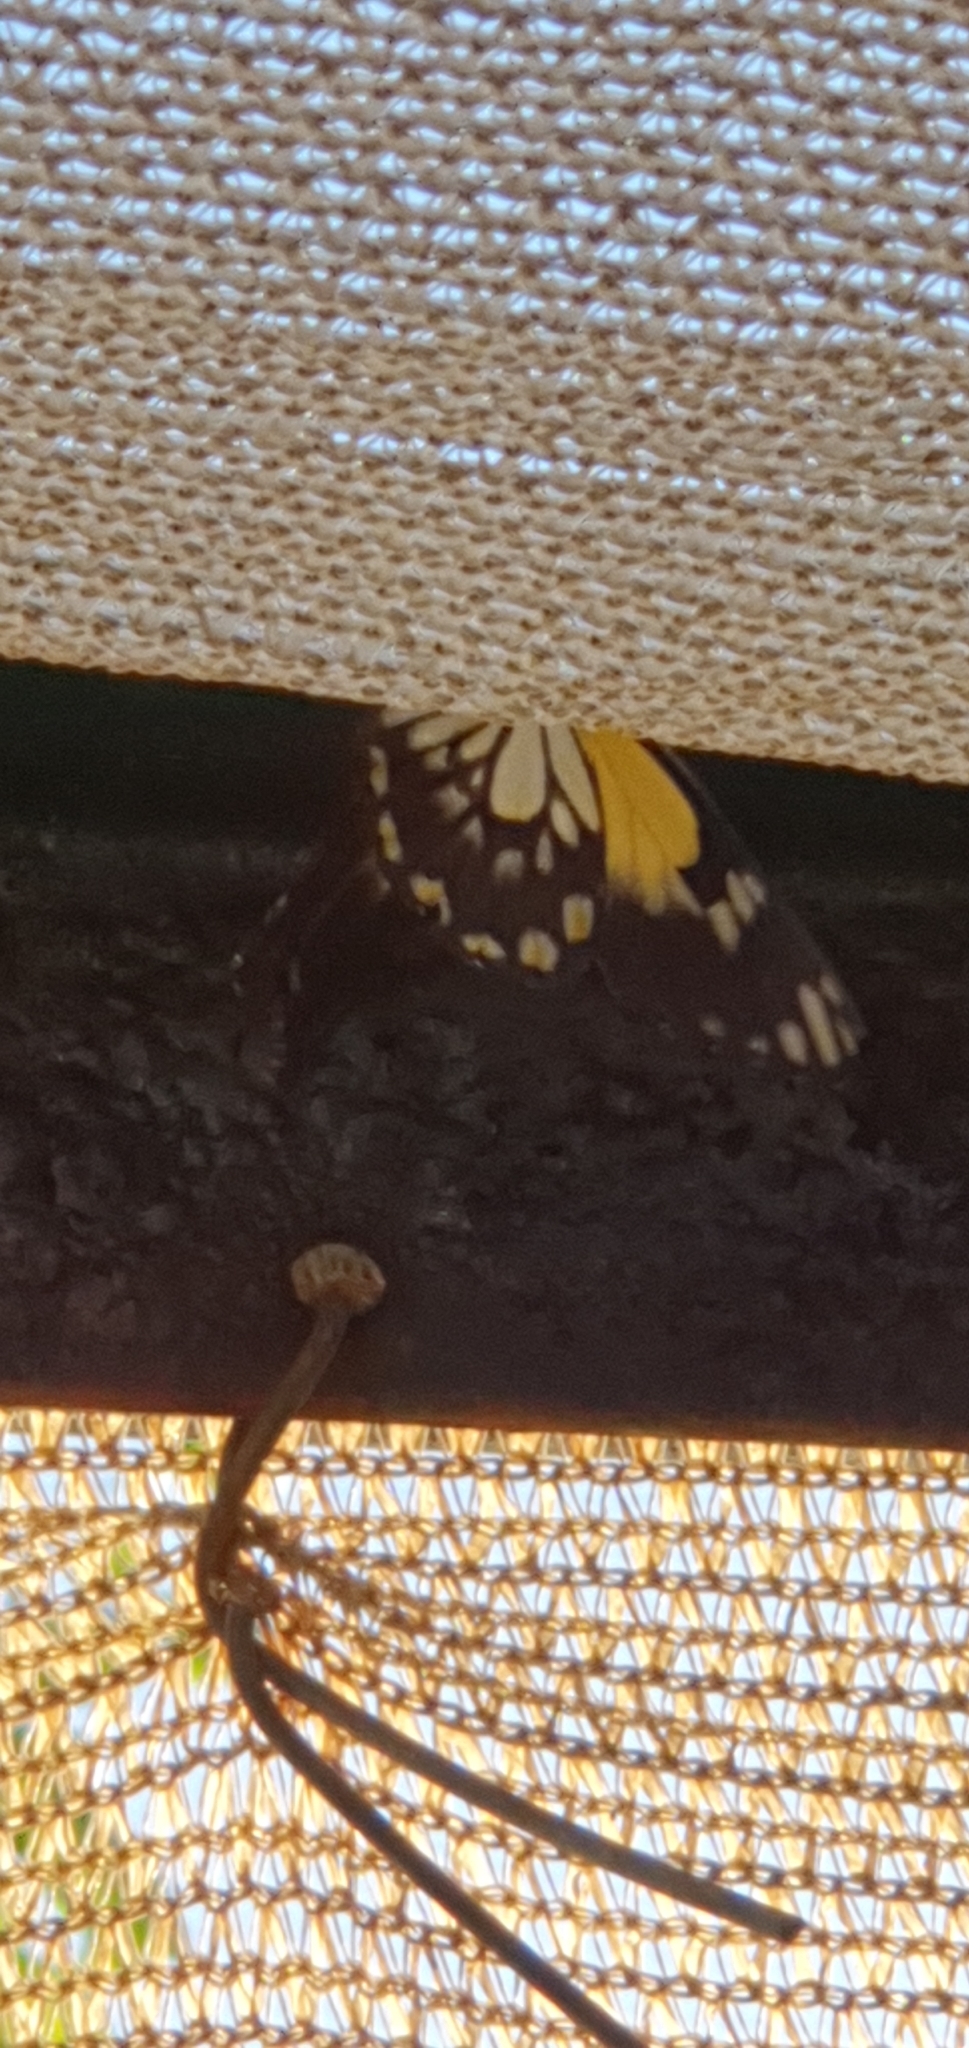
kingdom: Animalia
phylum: Arthropoda
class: Insecta
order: Lepidoptera
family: Pieridae
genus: Belenois
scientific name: Belenois java
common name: Caper white
